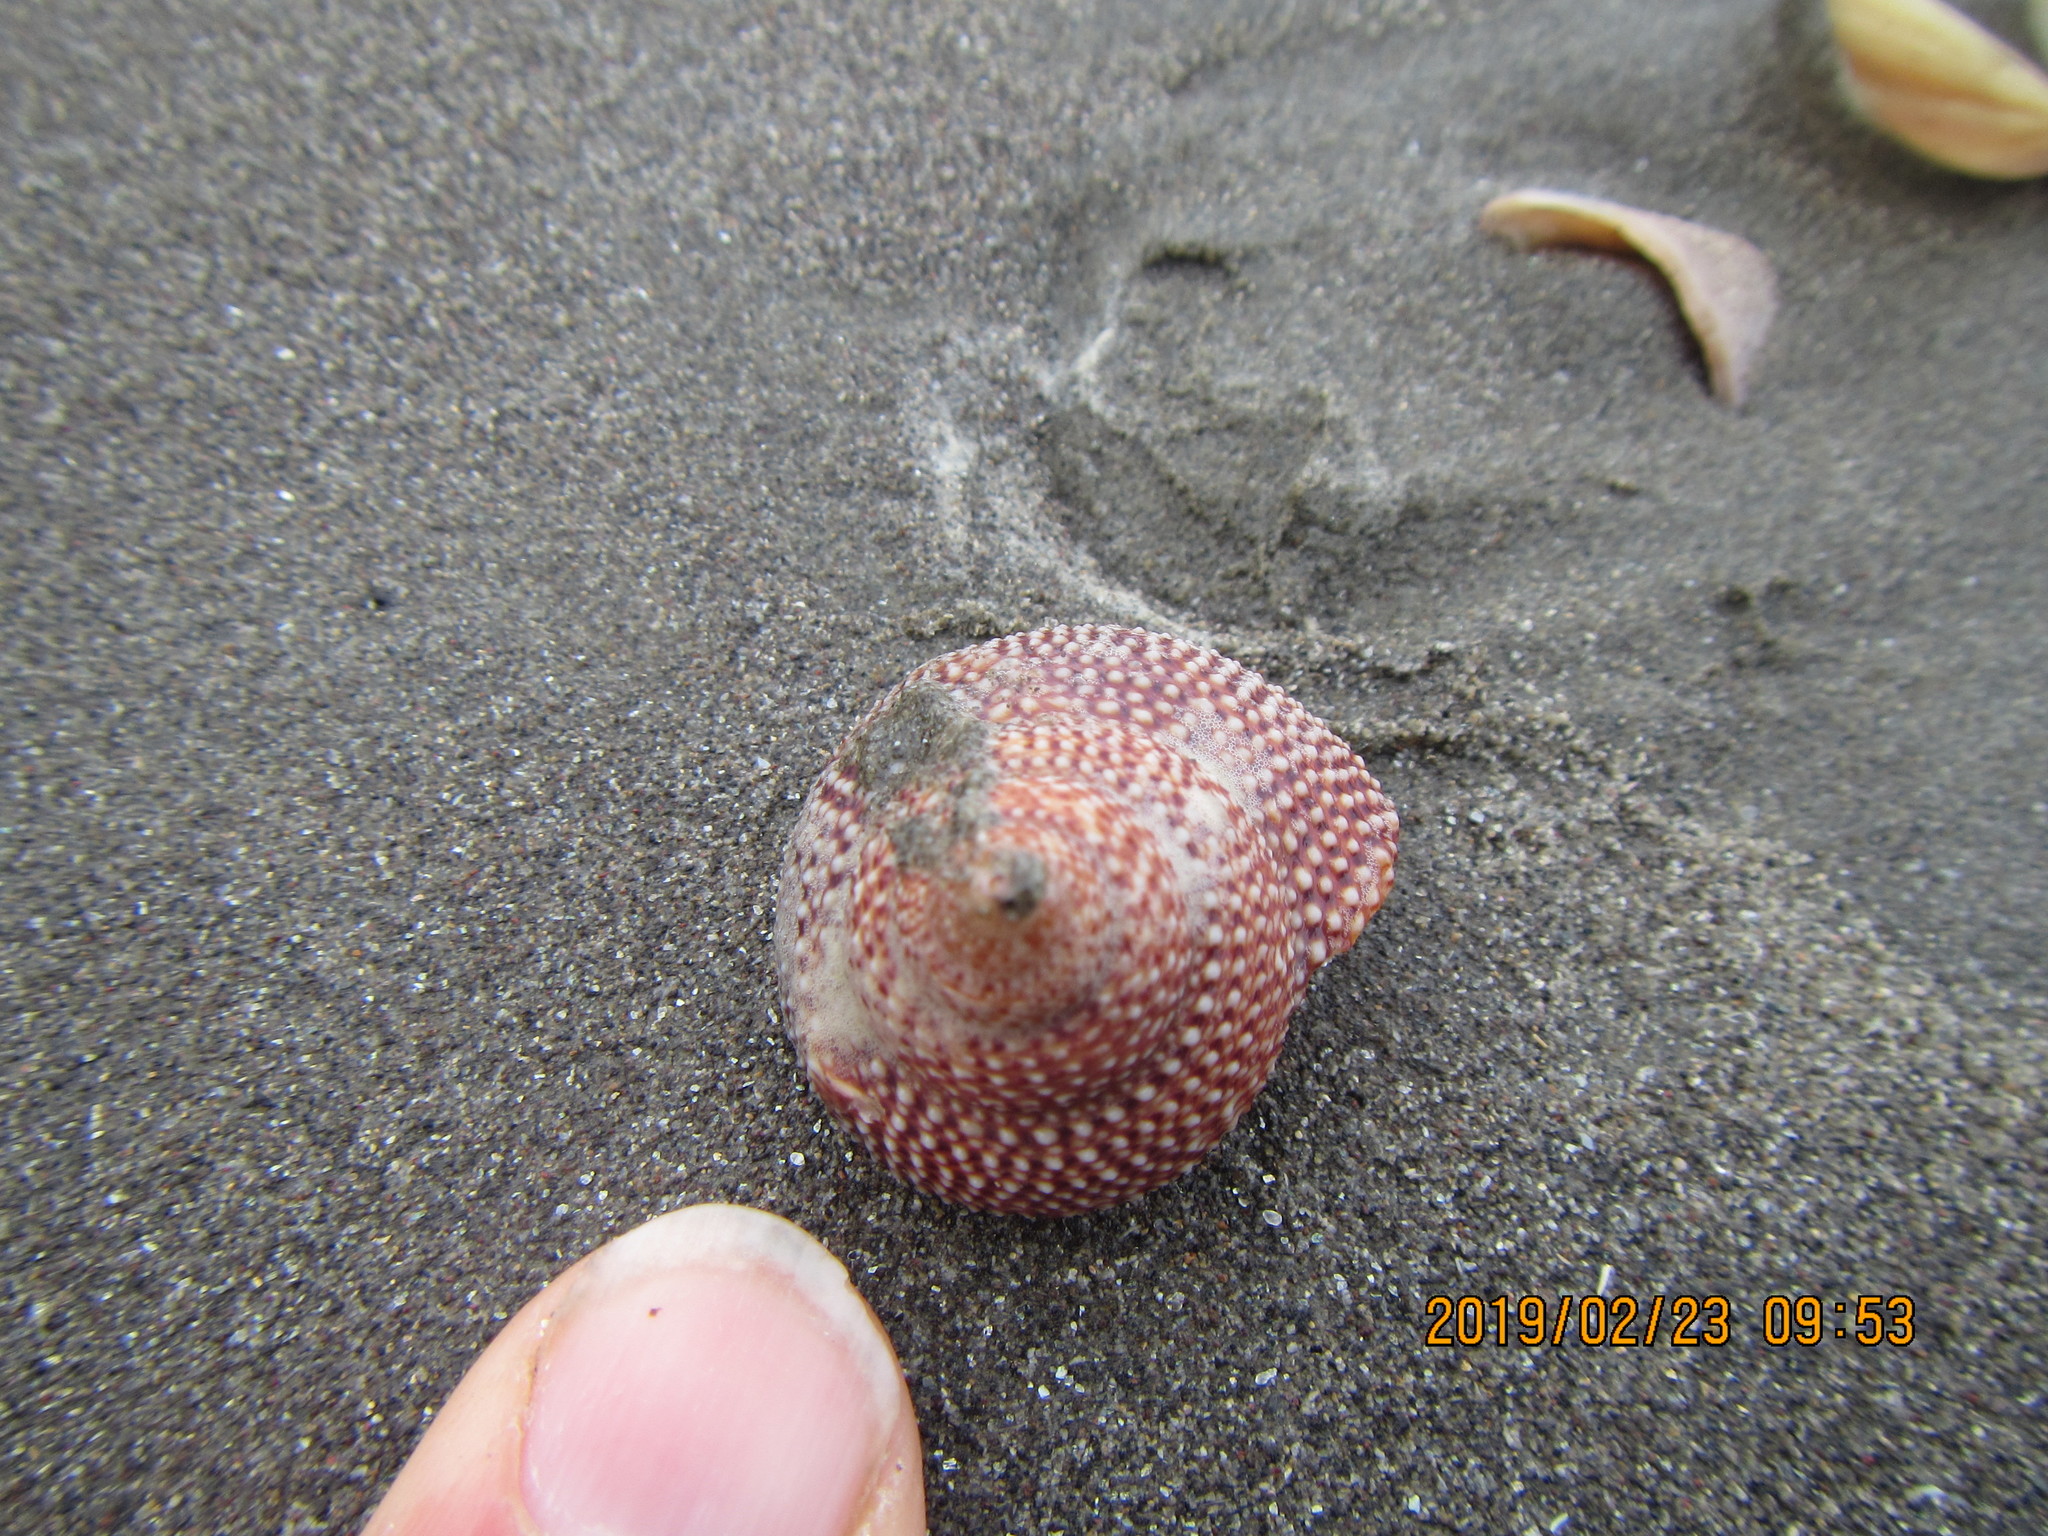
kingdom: Animalia
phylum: Mollusca
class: Gastropoda
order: Trochida
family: Calliostomatidae
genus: Maurea
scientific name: Maurea granti
